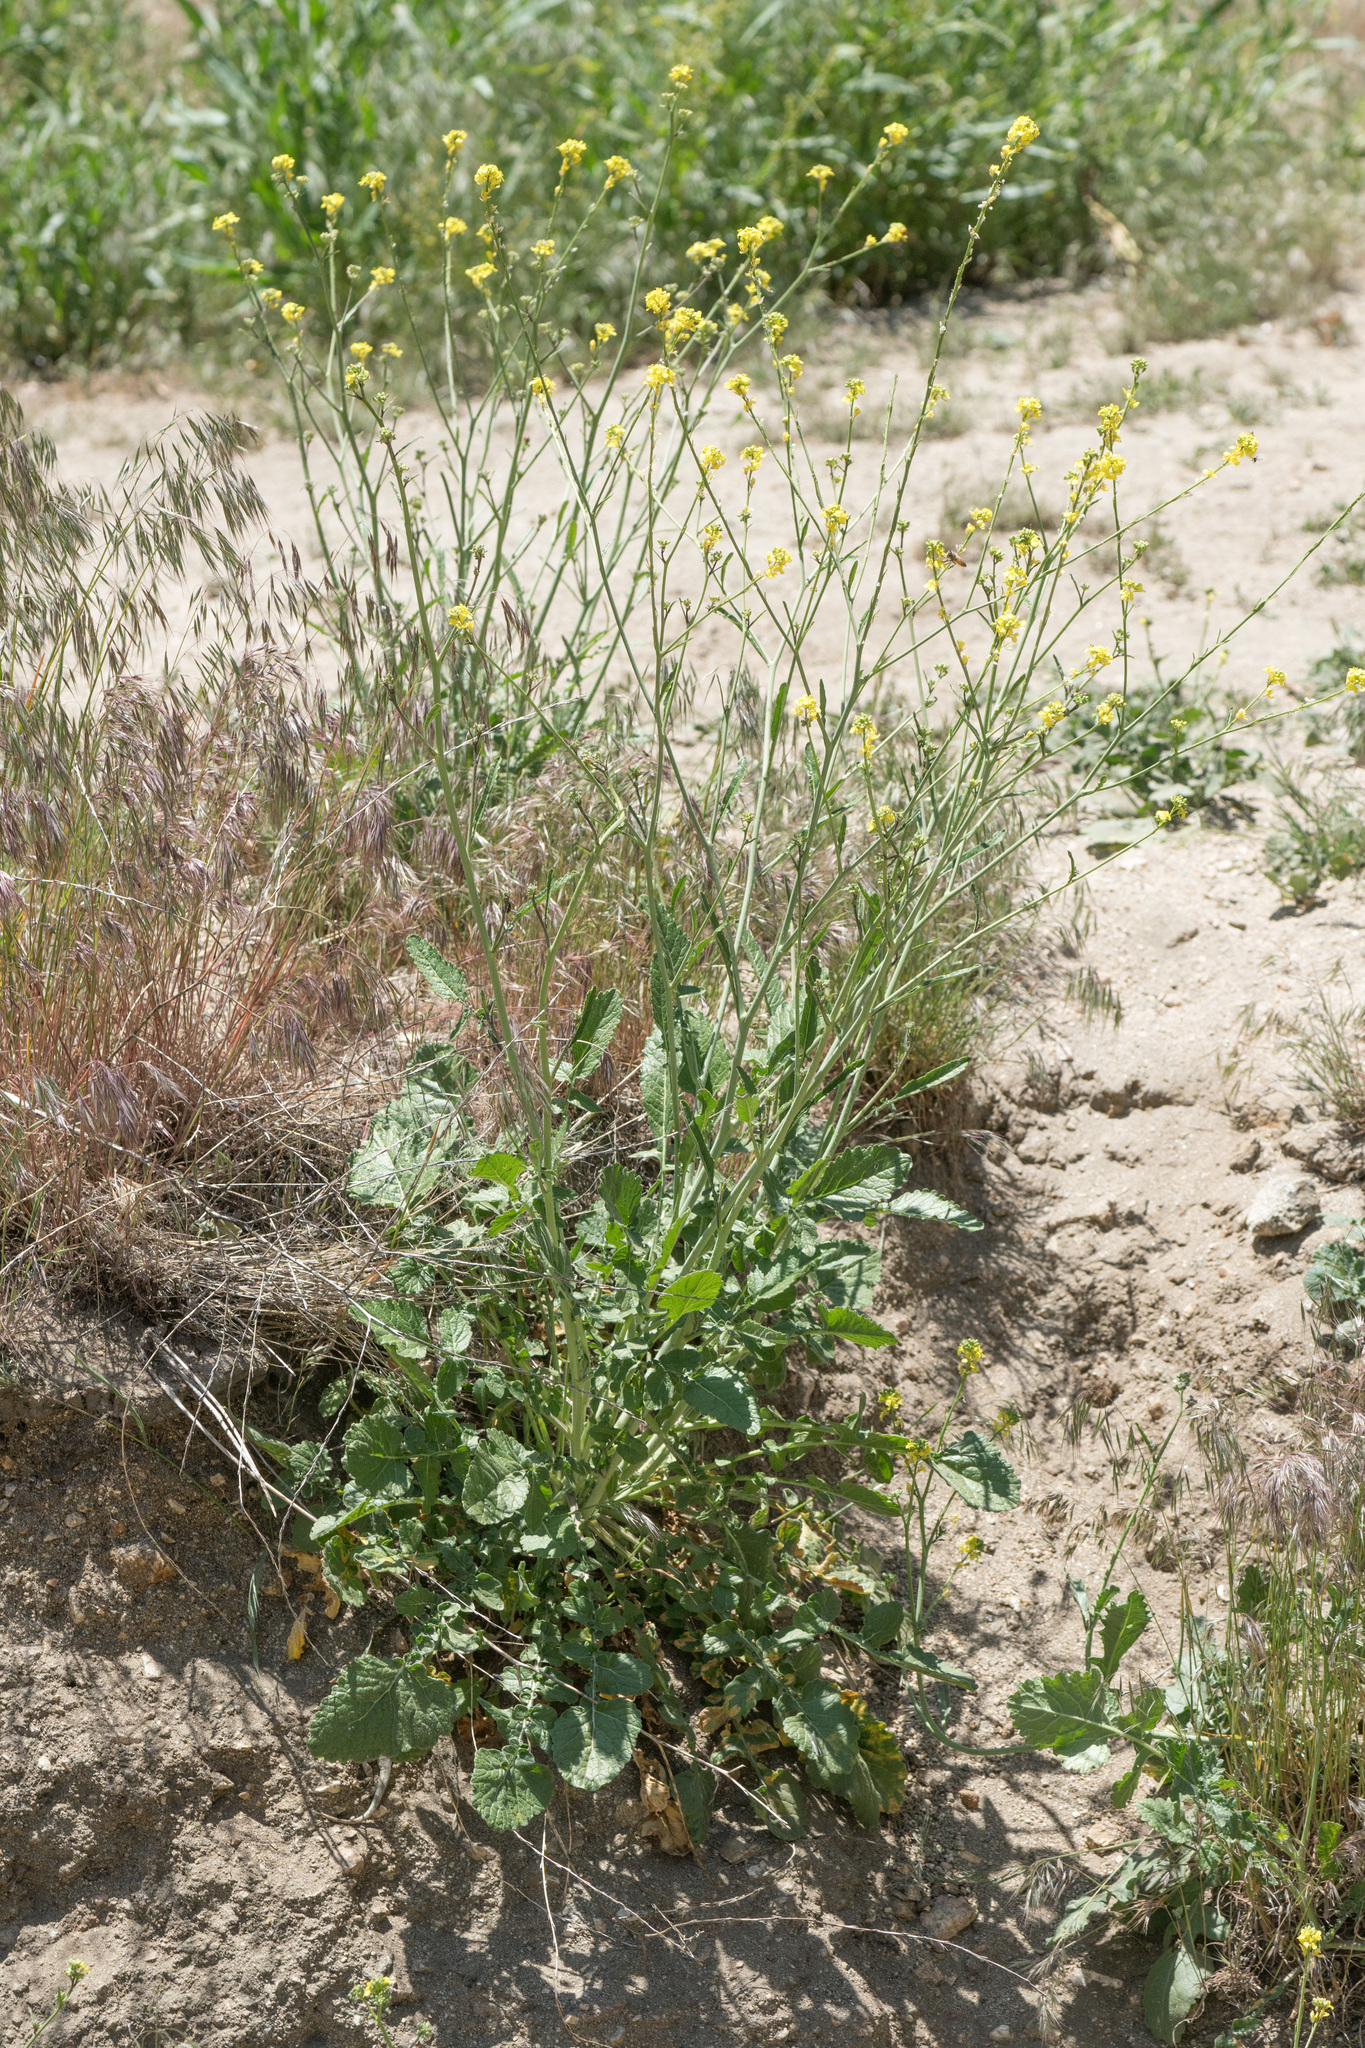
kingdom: Plantae
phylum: Tracheophyta
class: Magnoliopsida
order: Brassicales
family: Brassicaceae
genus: Hirschfeldia
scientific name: Hirschfeldia incana
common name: Hoary mustard
